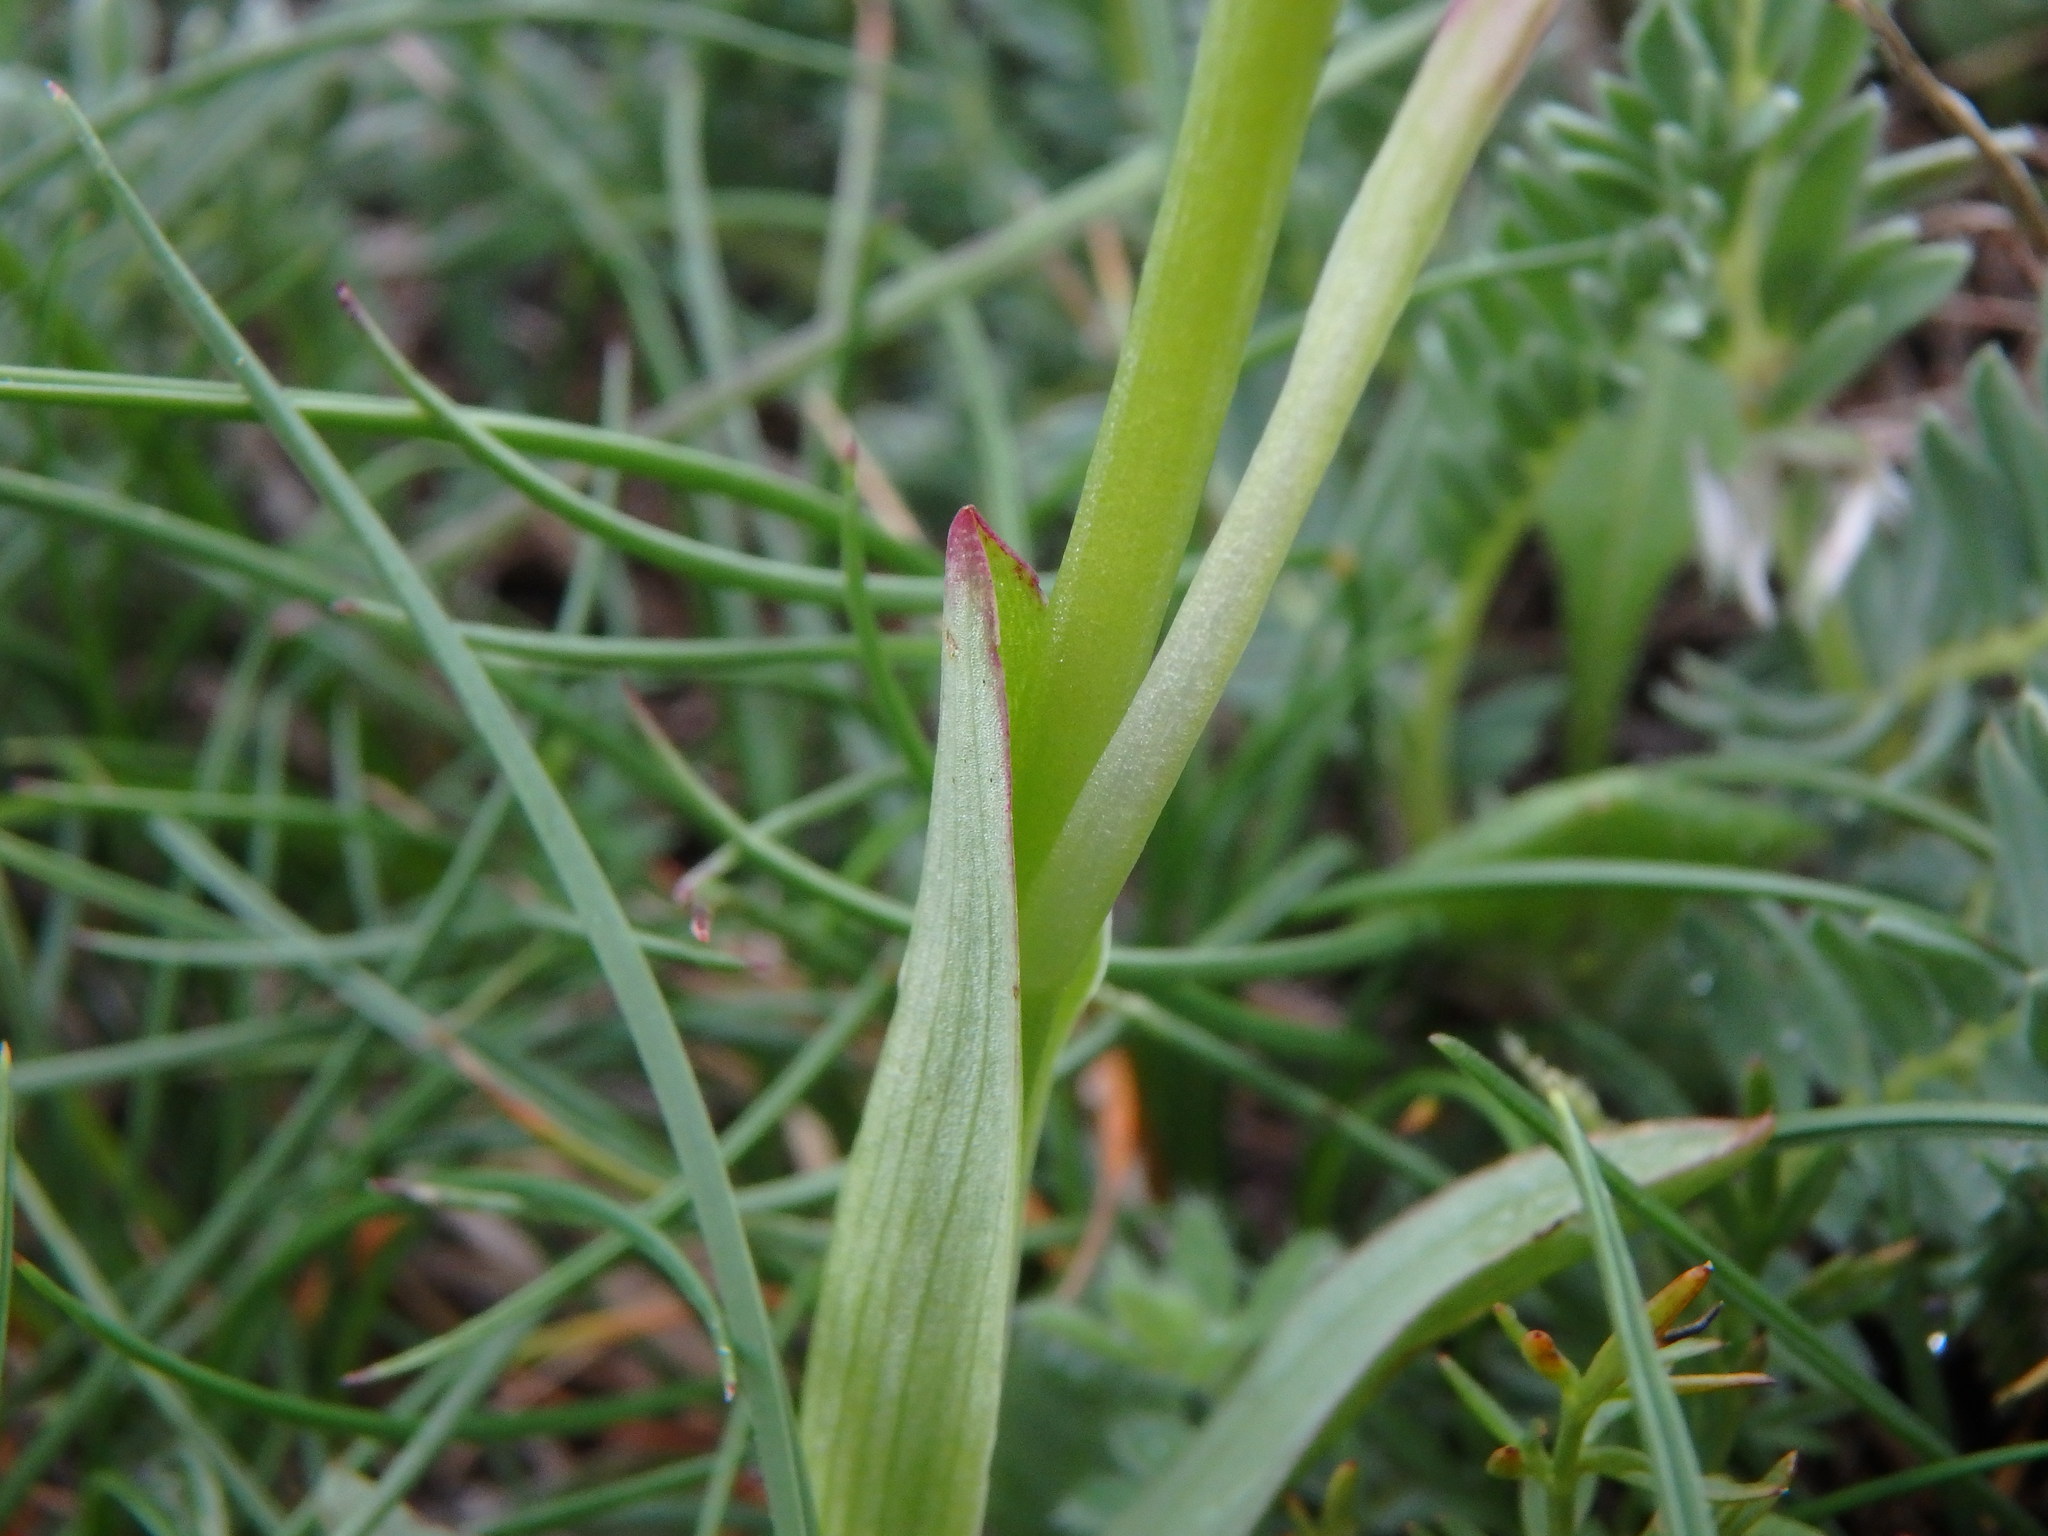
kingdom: Plantae
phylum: Tracheophyta
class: Liliopsida
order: Asparagales
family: Orchidaceae
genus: Neotinea
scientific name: Neotinea ustulata
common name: Burnt orchid
